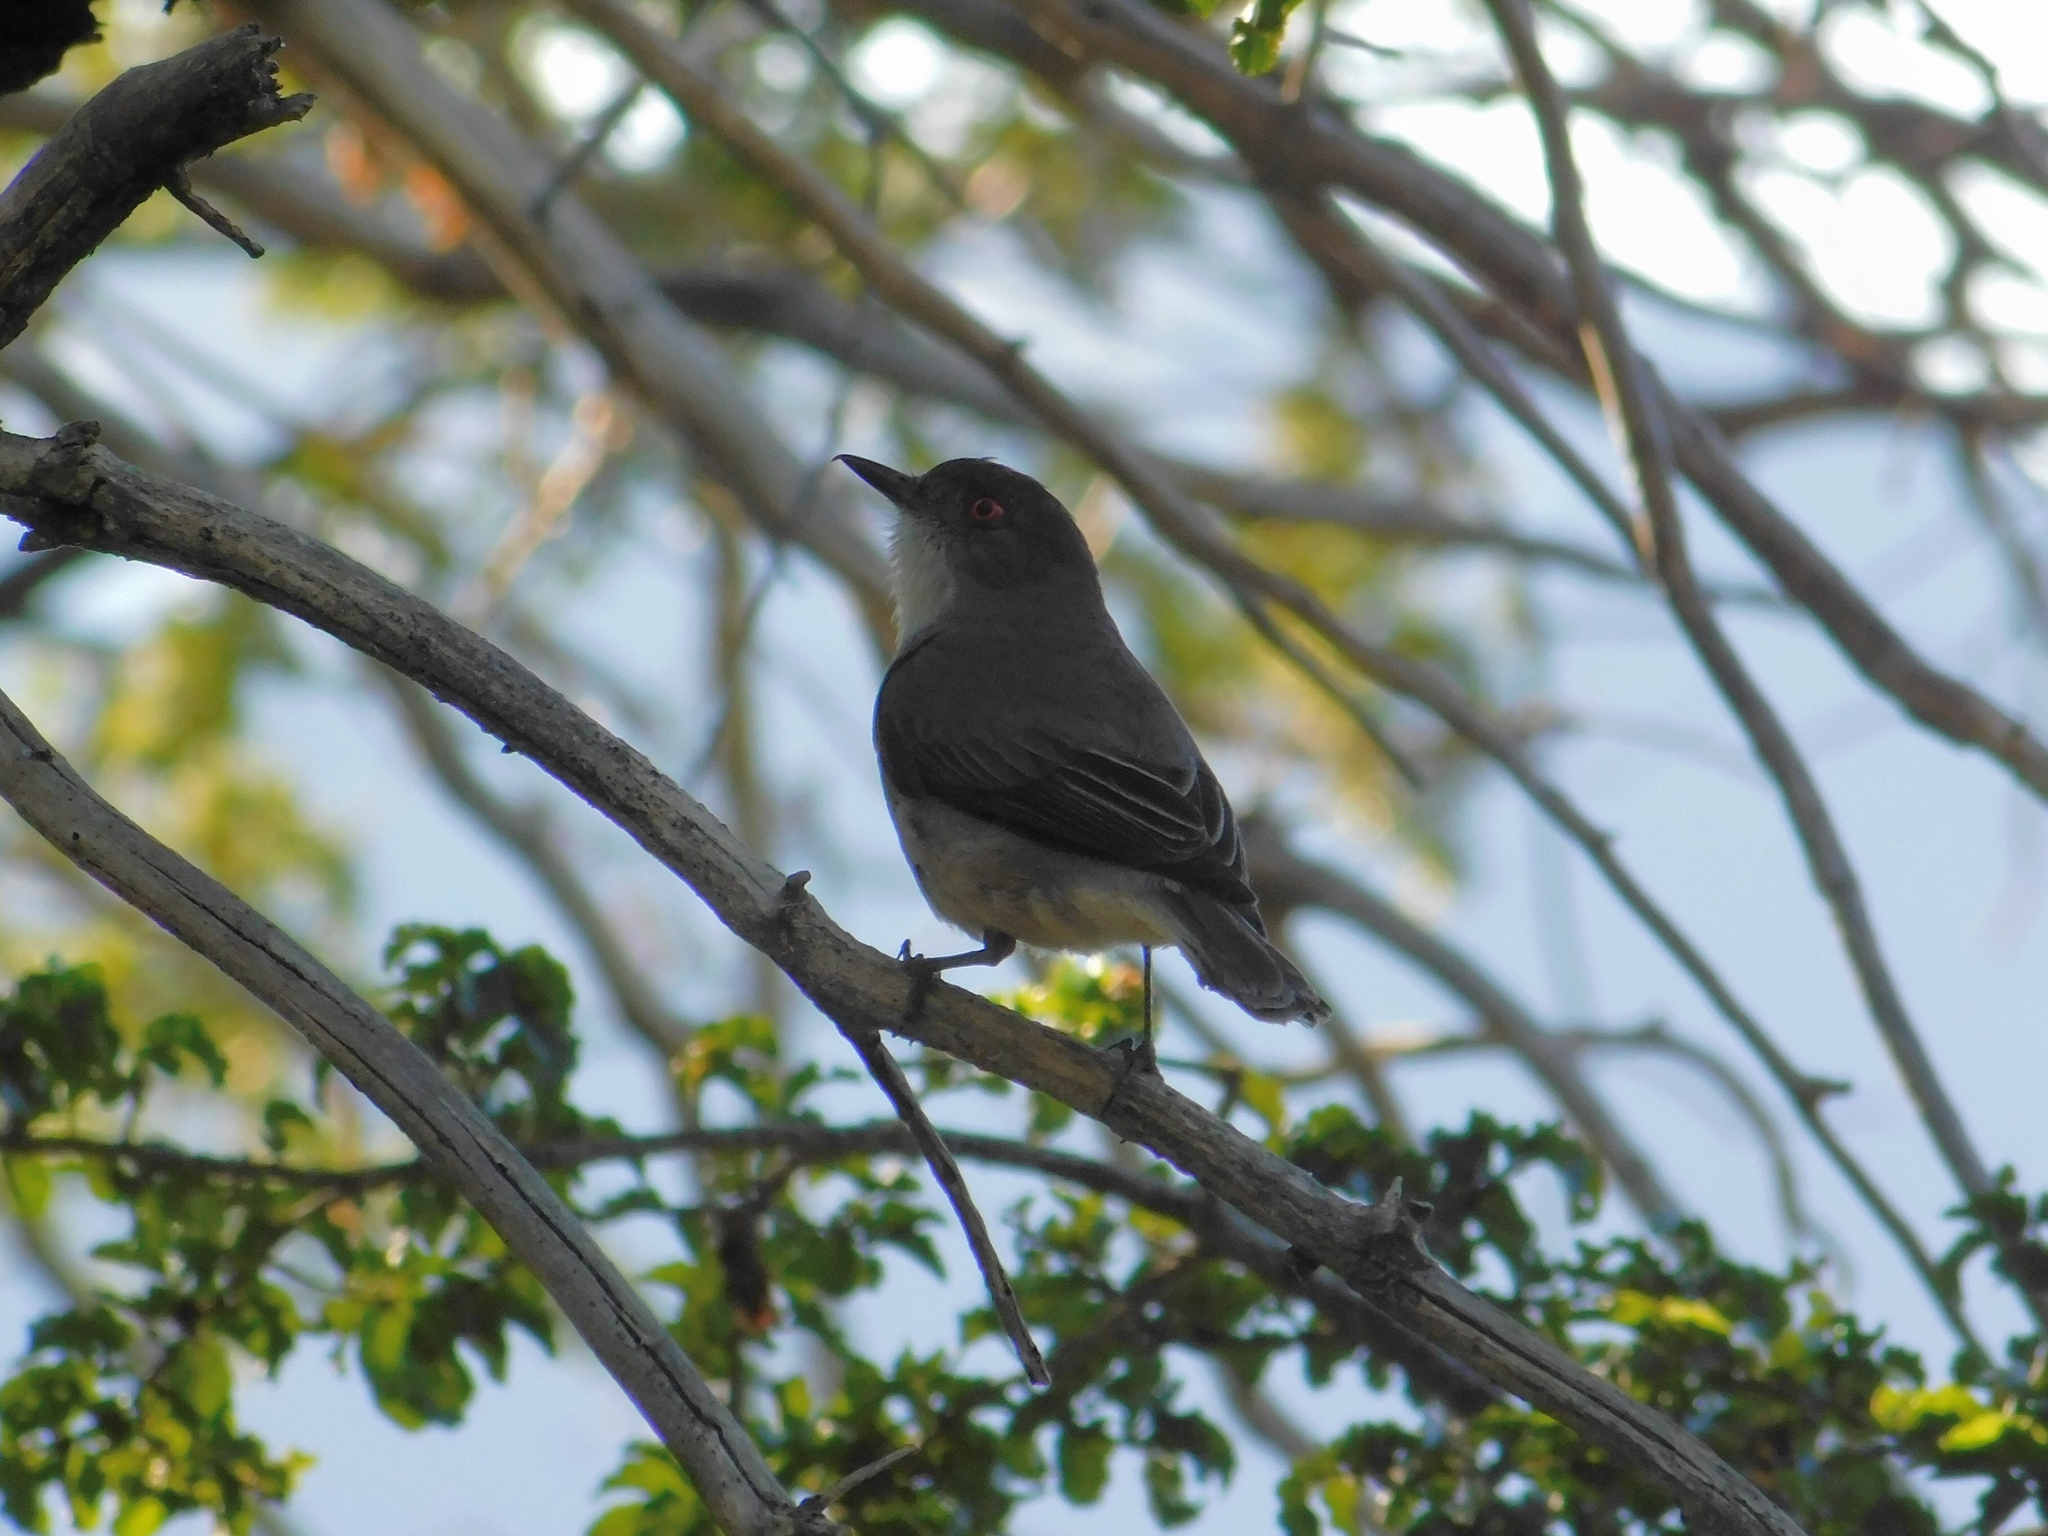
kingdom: Animalia
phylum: Chordata
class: Aves
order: Passeriformes
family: Tyrannidae
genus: Xolmis
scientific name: Xolmis pyrope
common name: Fire-eyed diucon
